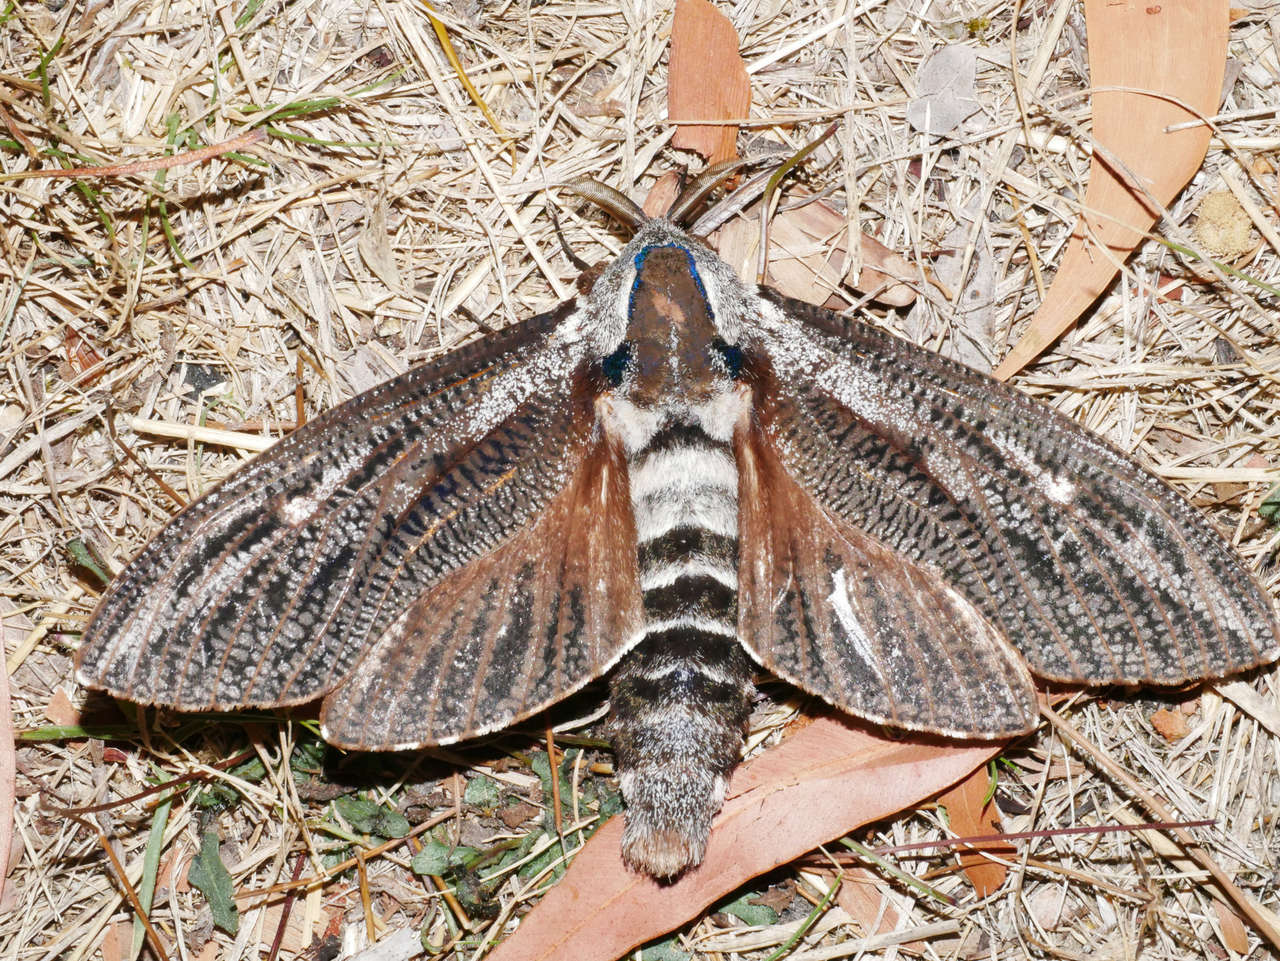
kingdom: Animalia
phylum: Arthropoda
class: Insecta
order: Lepidoptera
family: Cossidae
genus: Endoxyla
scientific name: Endoxyla encalypti
